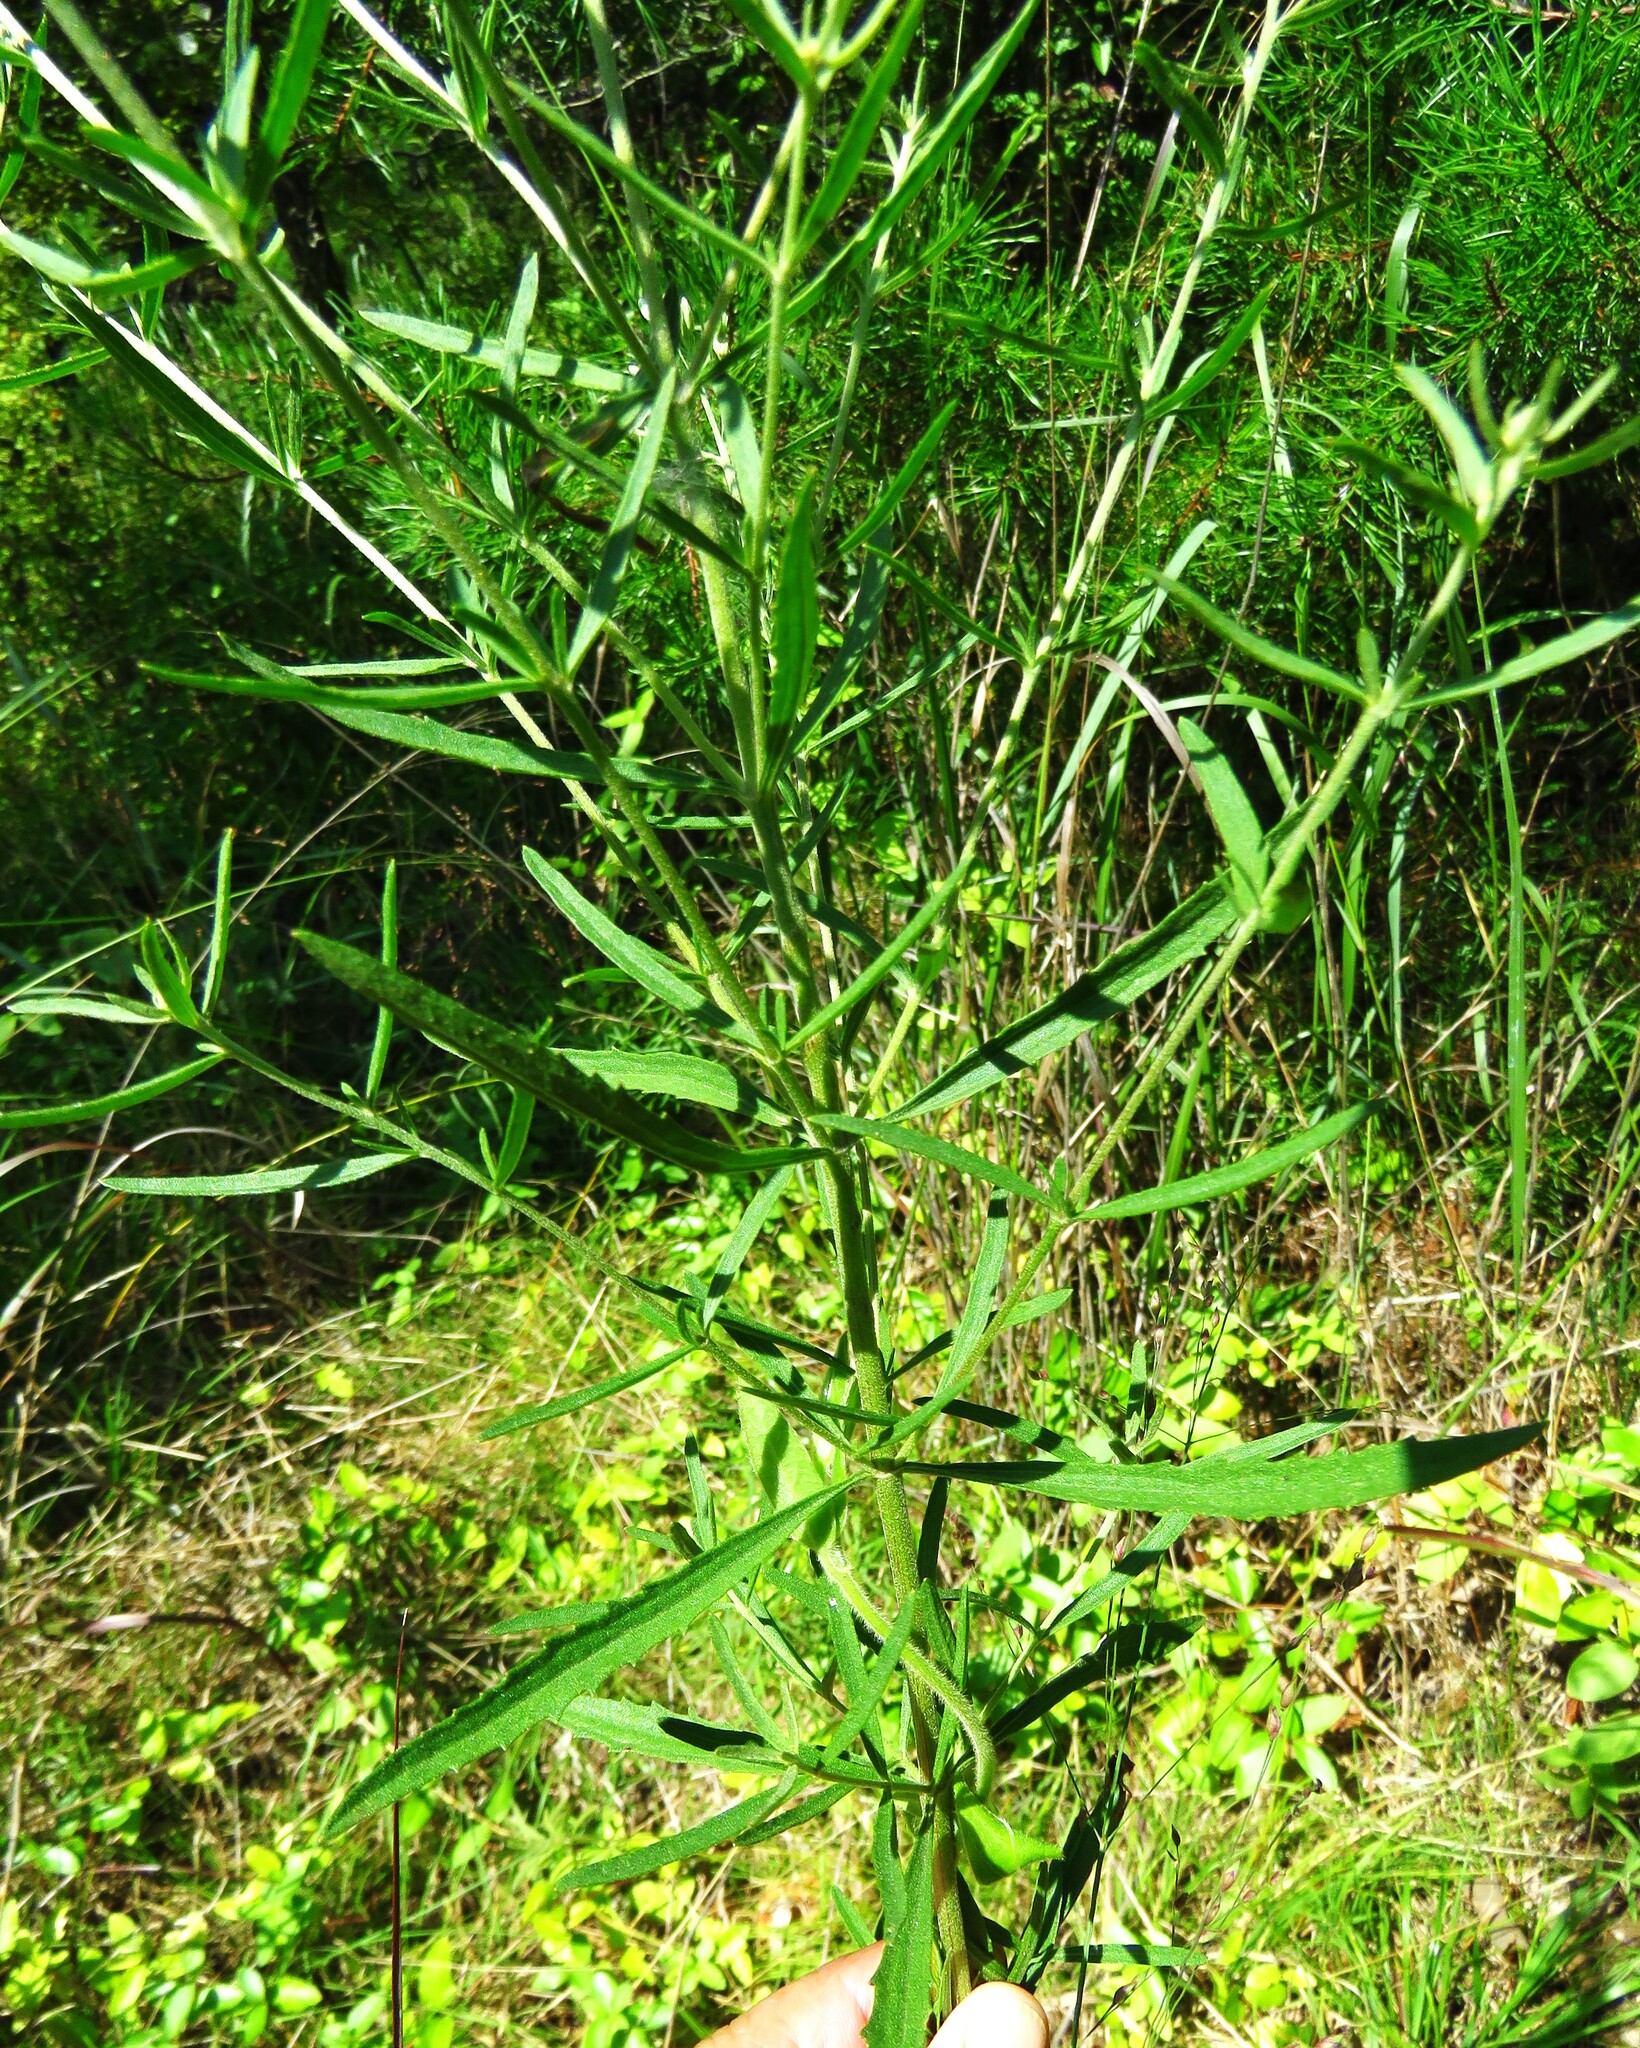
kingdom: Plantae
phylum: Tracheophyta
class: Magnoliopsida
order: Asterales
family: Asteraceae
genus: Eupatorium
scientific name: Eupatorium torreyanum
